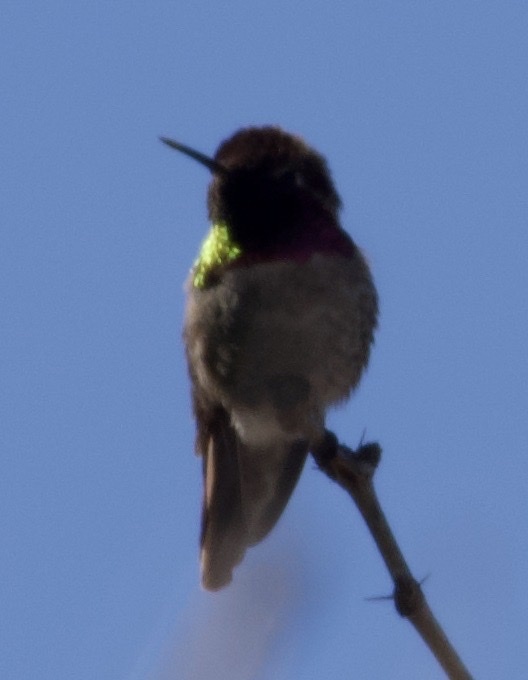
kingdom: Animalia
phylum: Chordata
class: Aves
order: Apodiformes
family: Trochilidae
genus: Calypte
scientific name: Calypte anna
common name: Anna's hummingbird
